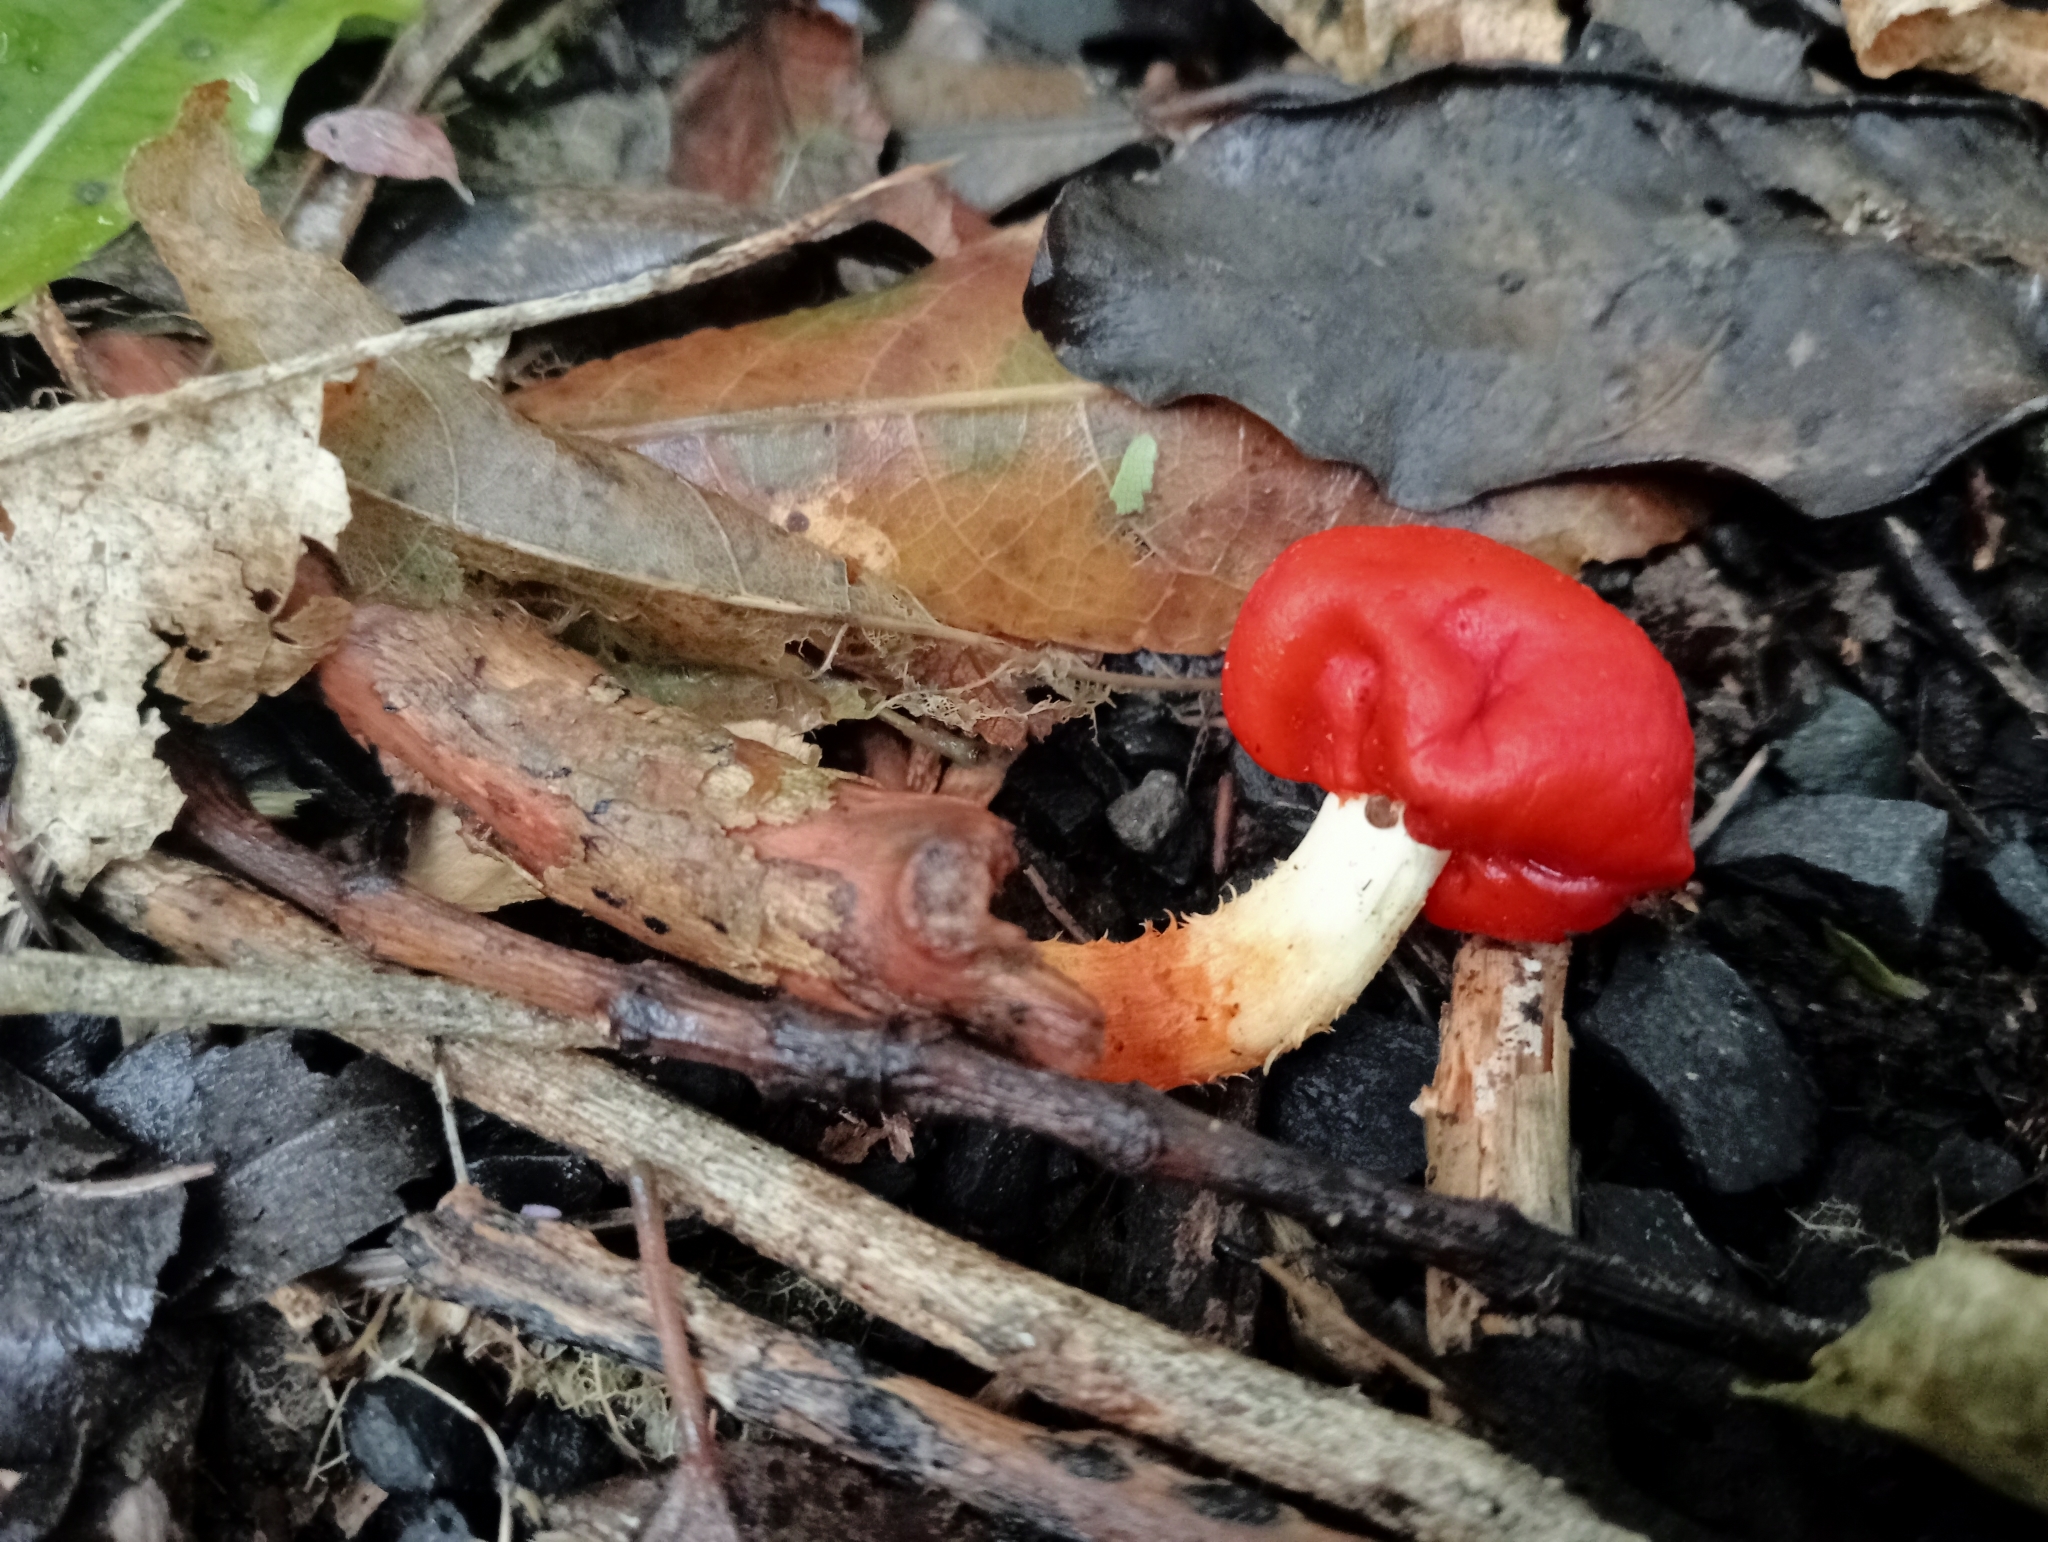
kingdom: Fungi
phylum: Basidiomycota
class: Agaricomycetes
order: Agaricales
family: Strophariaceae
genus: Leratiomyces
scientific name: Leratiomyces erythrocephalus
